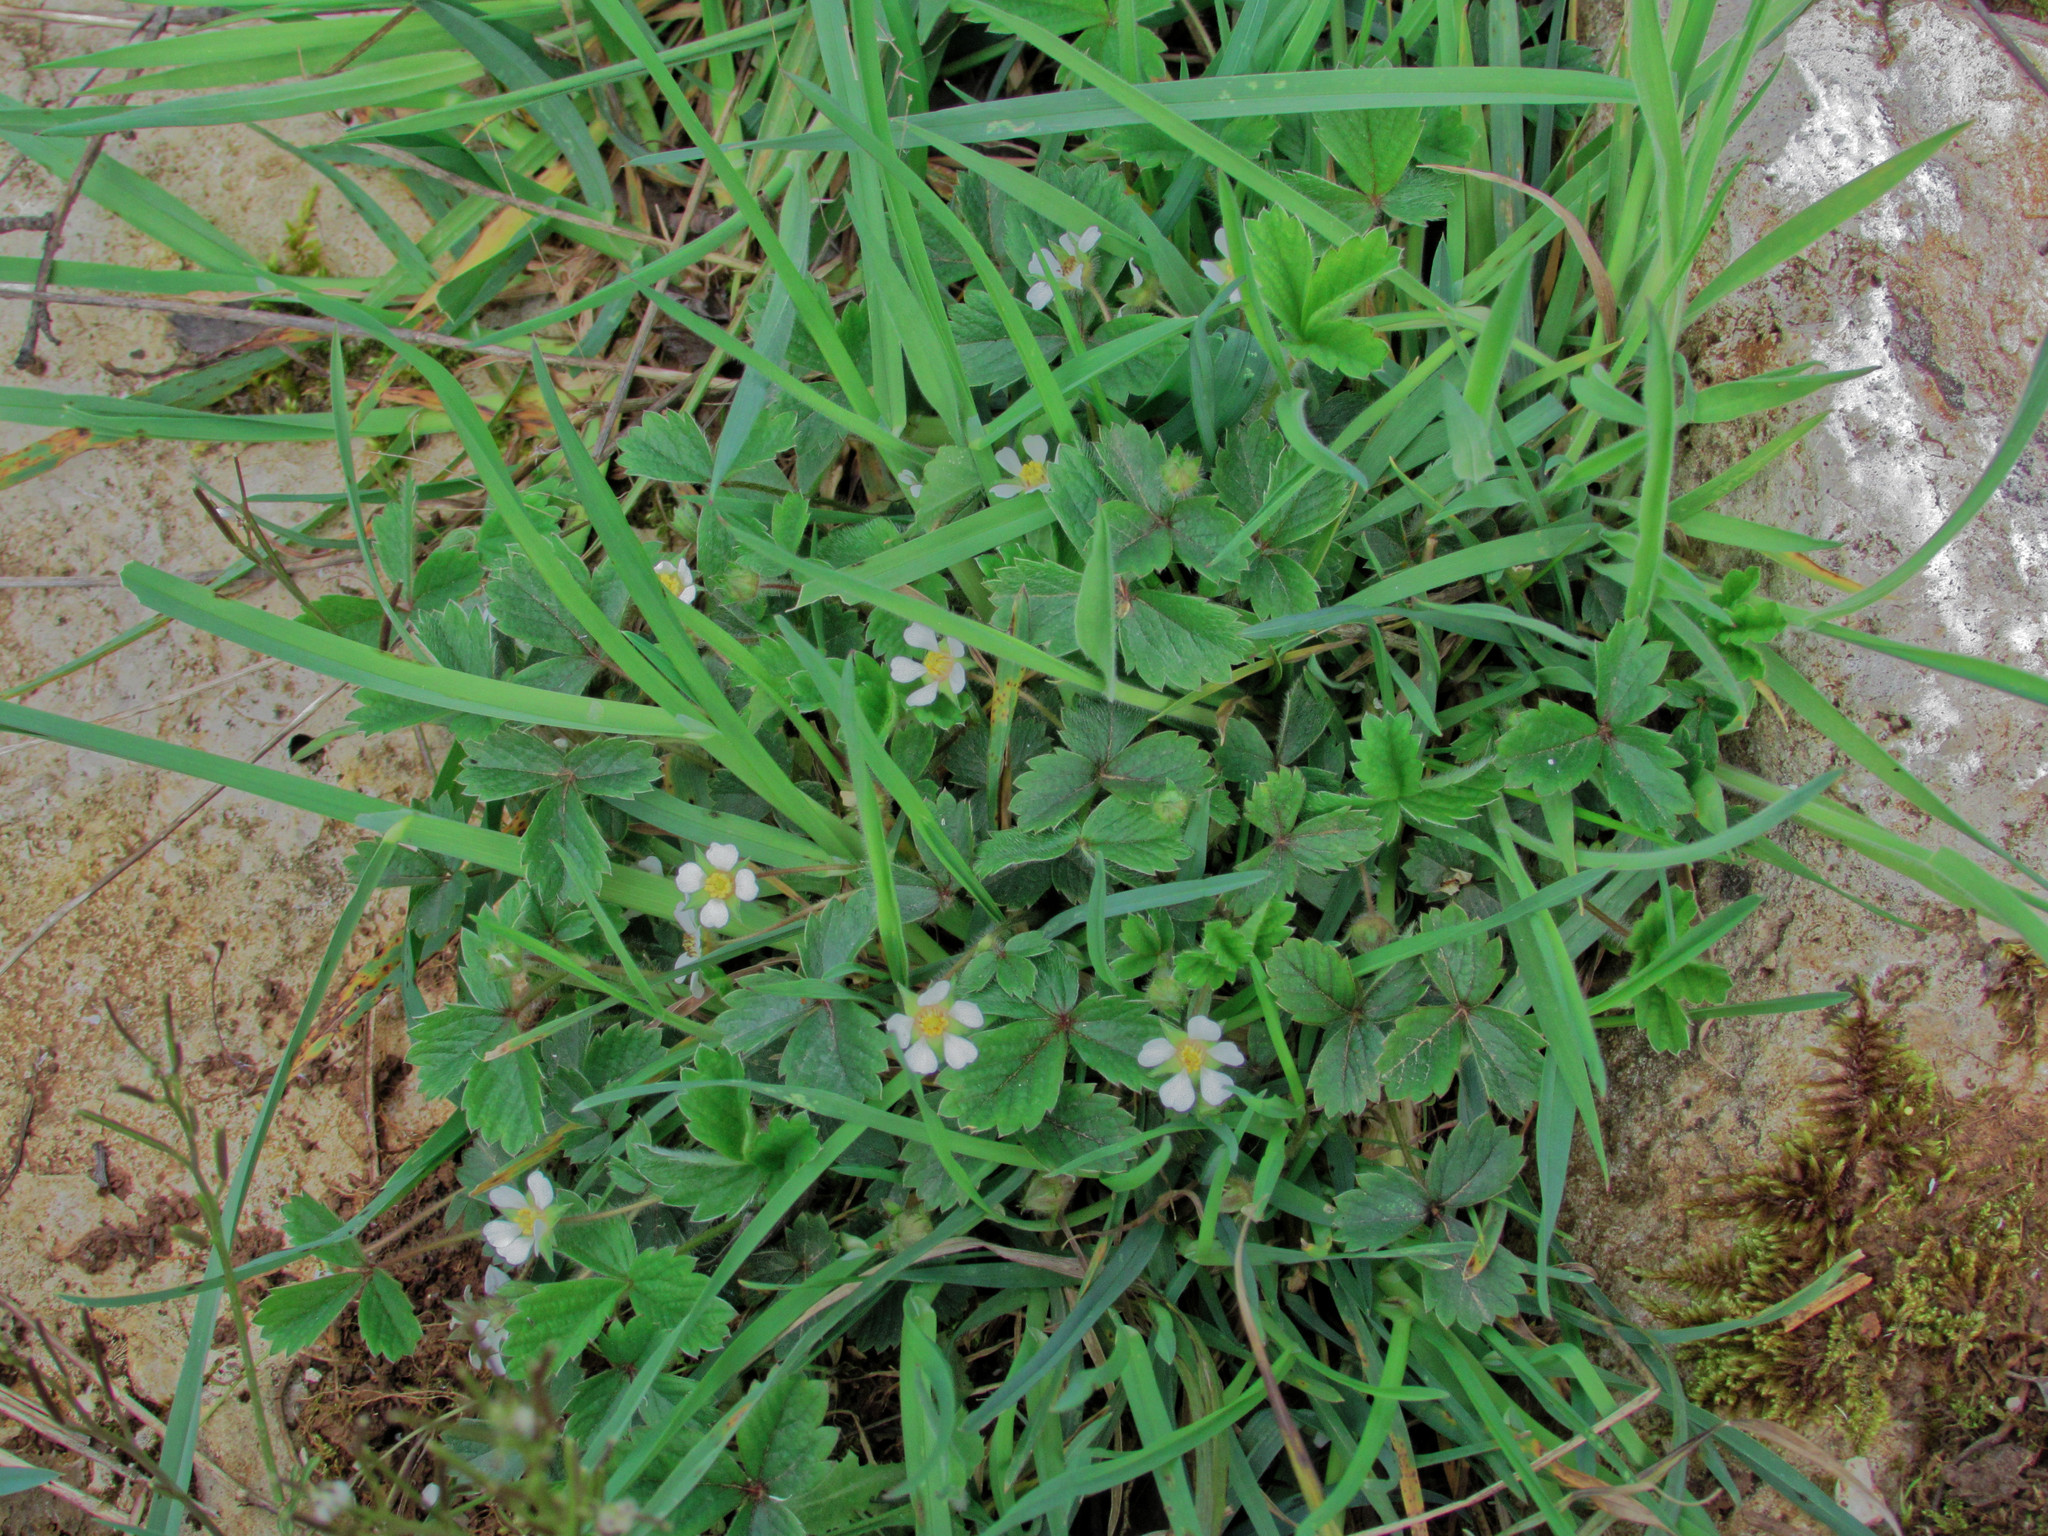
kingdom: Plantae
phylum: Tracheophyta
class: Magnoliopsida
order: Rosales
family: Rosaceae
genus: Potentilla
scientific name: Potentilla sterilis
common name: Barren strawberry
